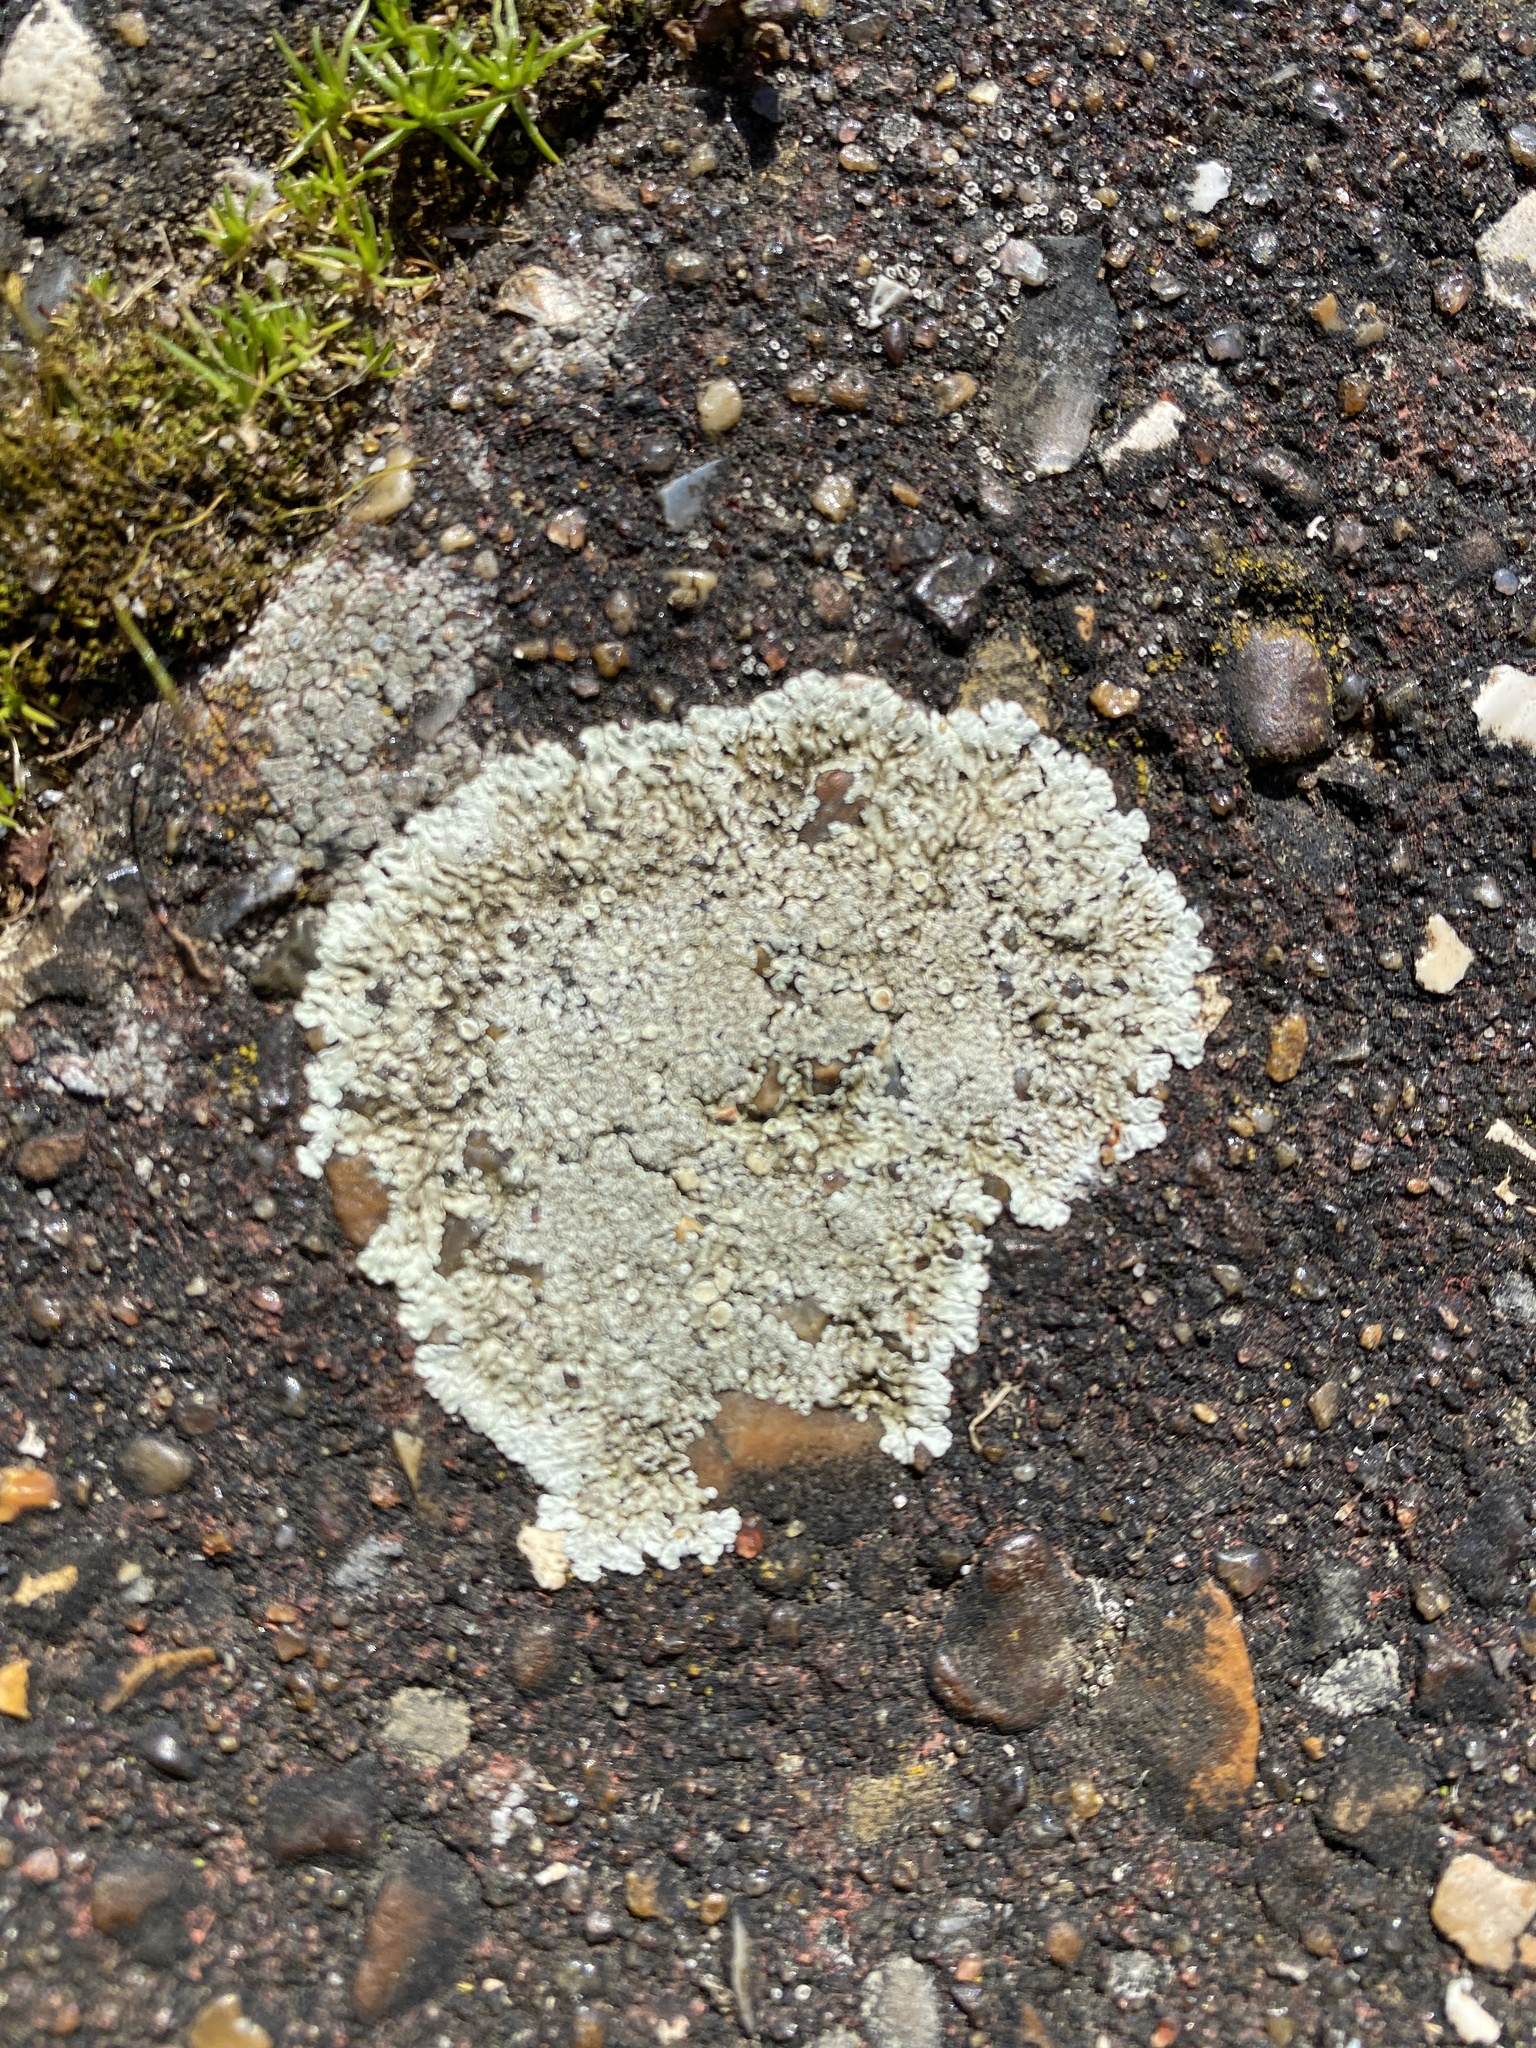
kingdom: Fungi
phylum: Ascomycota
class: Lecanoromycetes
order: Lecanorales
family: Lecanoraceae
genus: Protoparmeliopsis
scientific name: Protoparmeliopsis muralis
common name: Stonewall rim lichen
